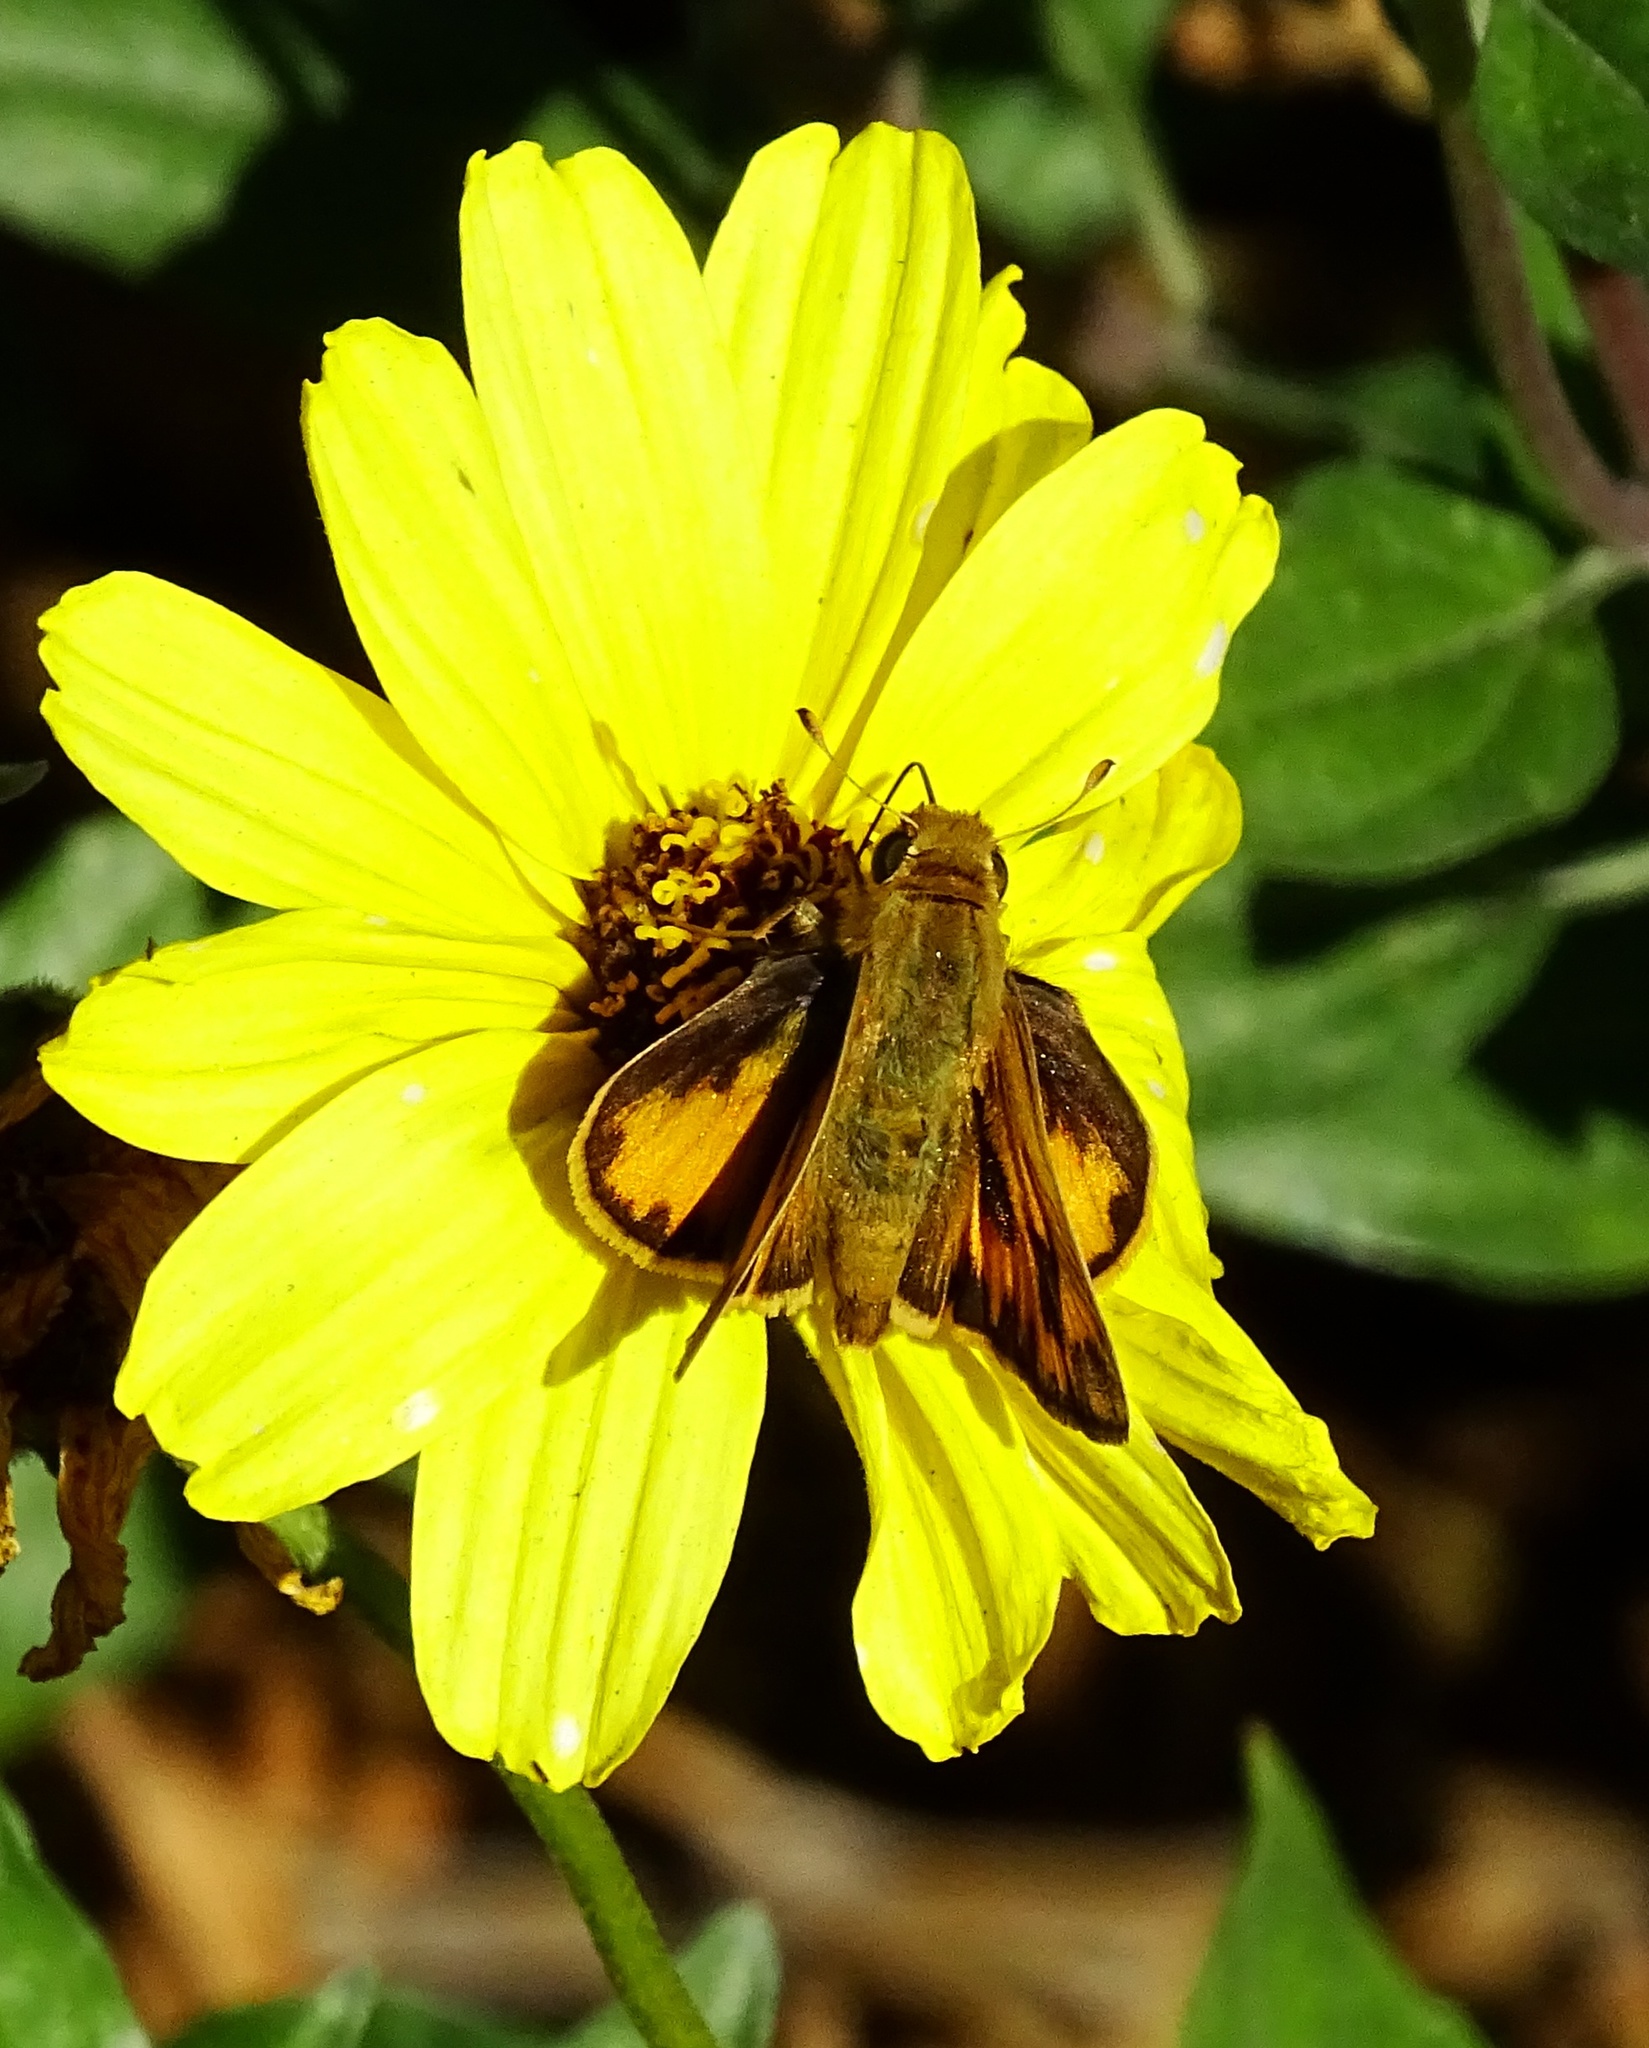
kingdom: Animalia
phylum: Arthropoda
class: Insecta
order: Lepidoptera
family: Hesperiidae
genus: Hylephila
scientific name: Hylephila phyleus
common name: Fiery skipper
